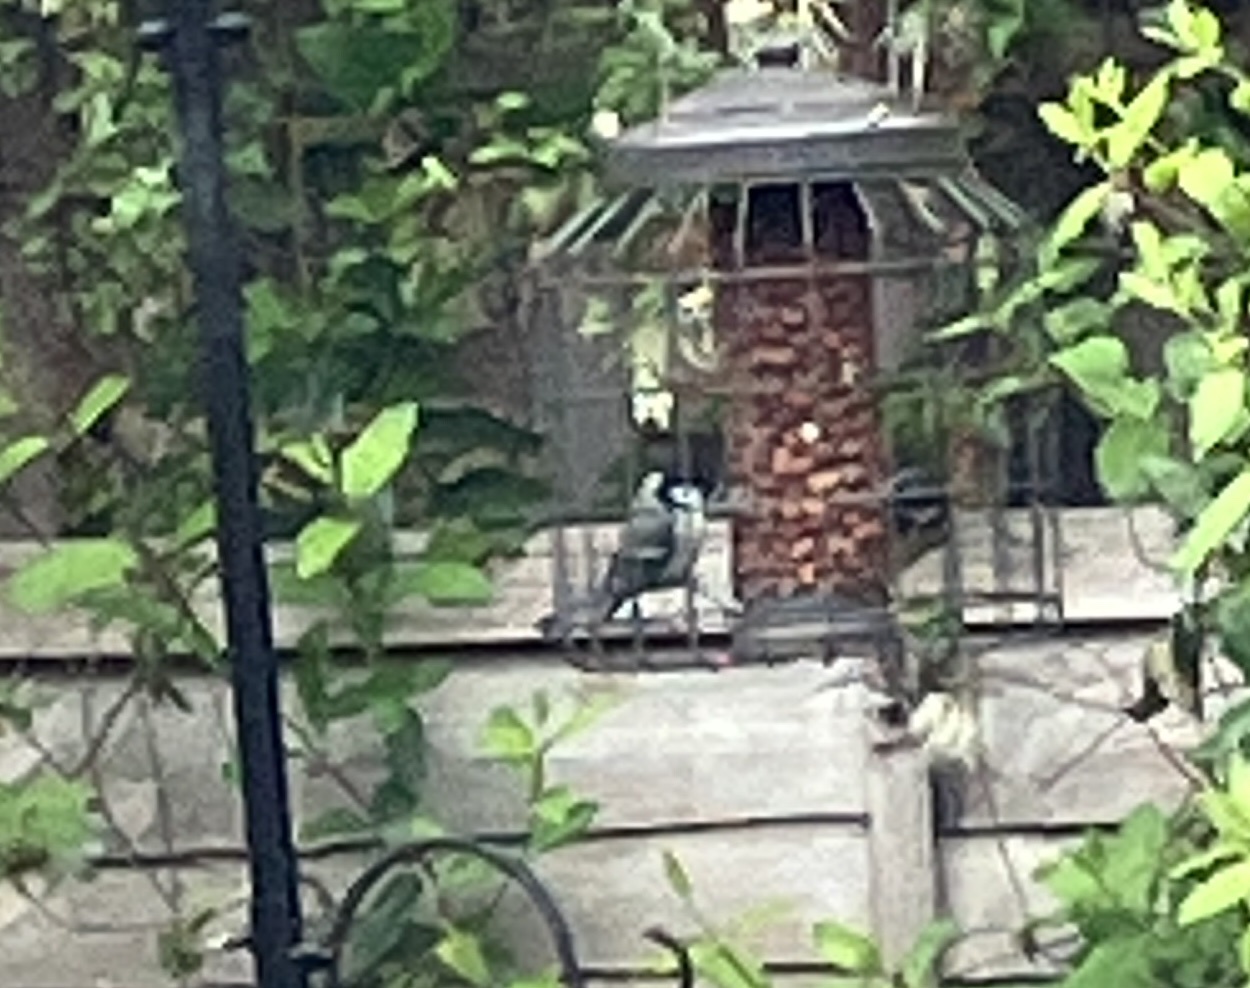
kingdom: Animalia
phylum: Chordata
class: Aves
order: Passeriformes
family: Paridae
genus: Parus
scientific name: Parus major
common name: Great tit
